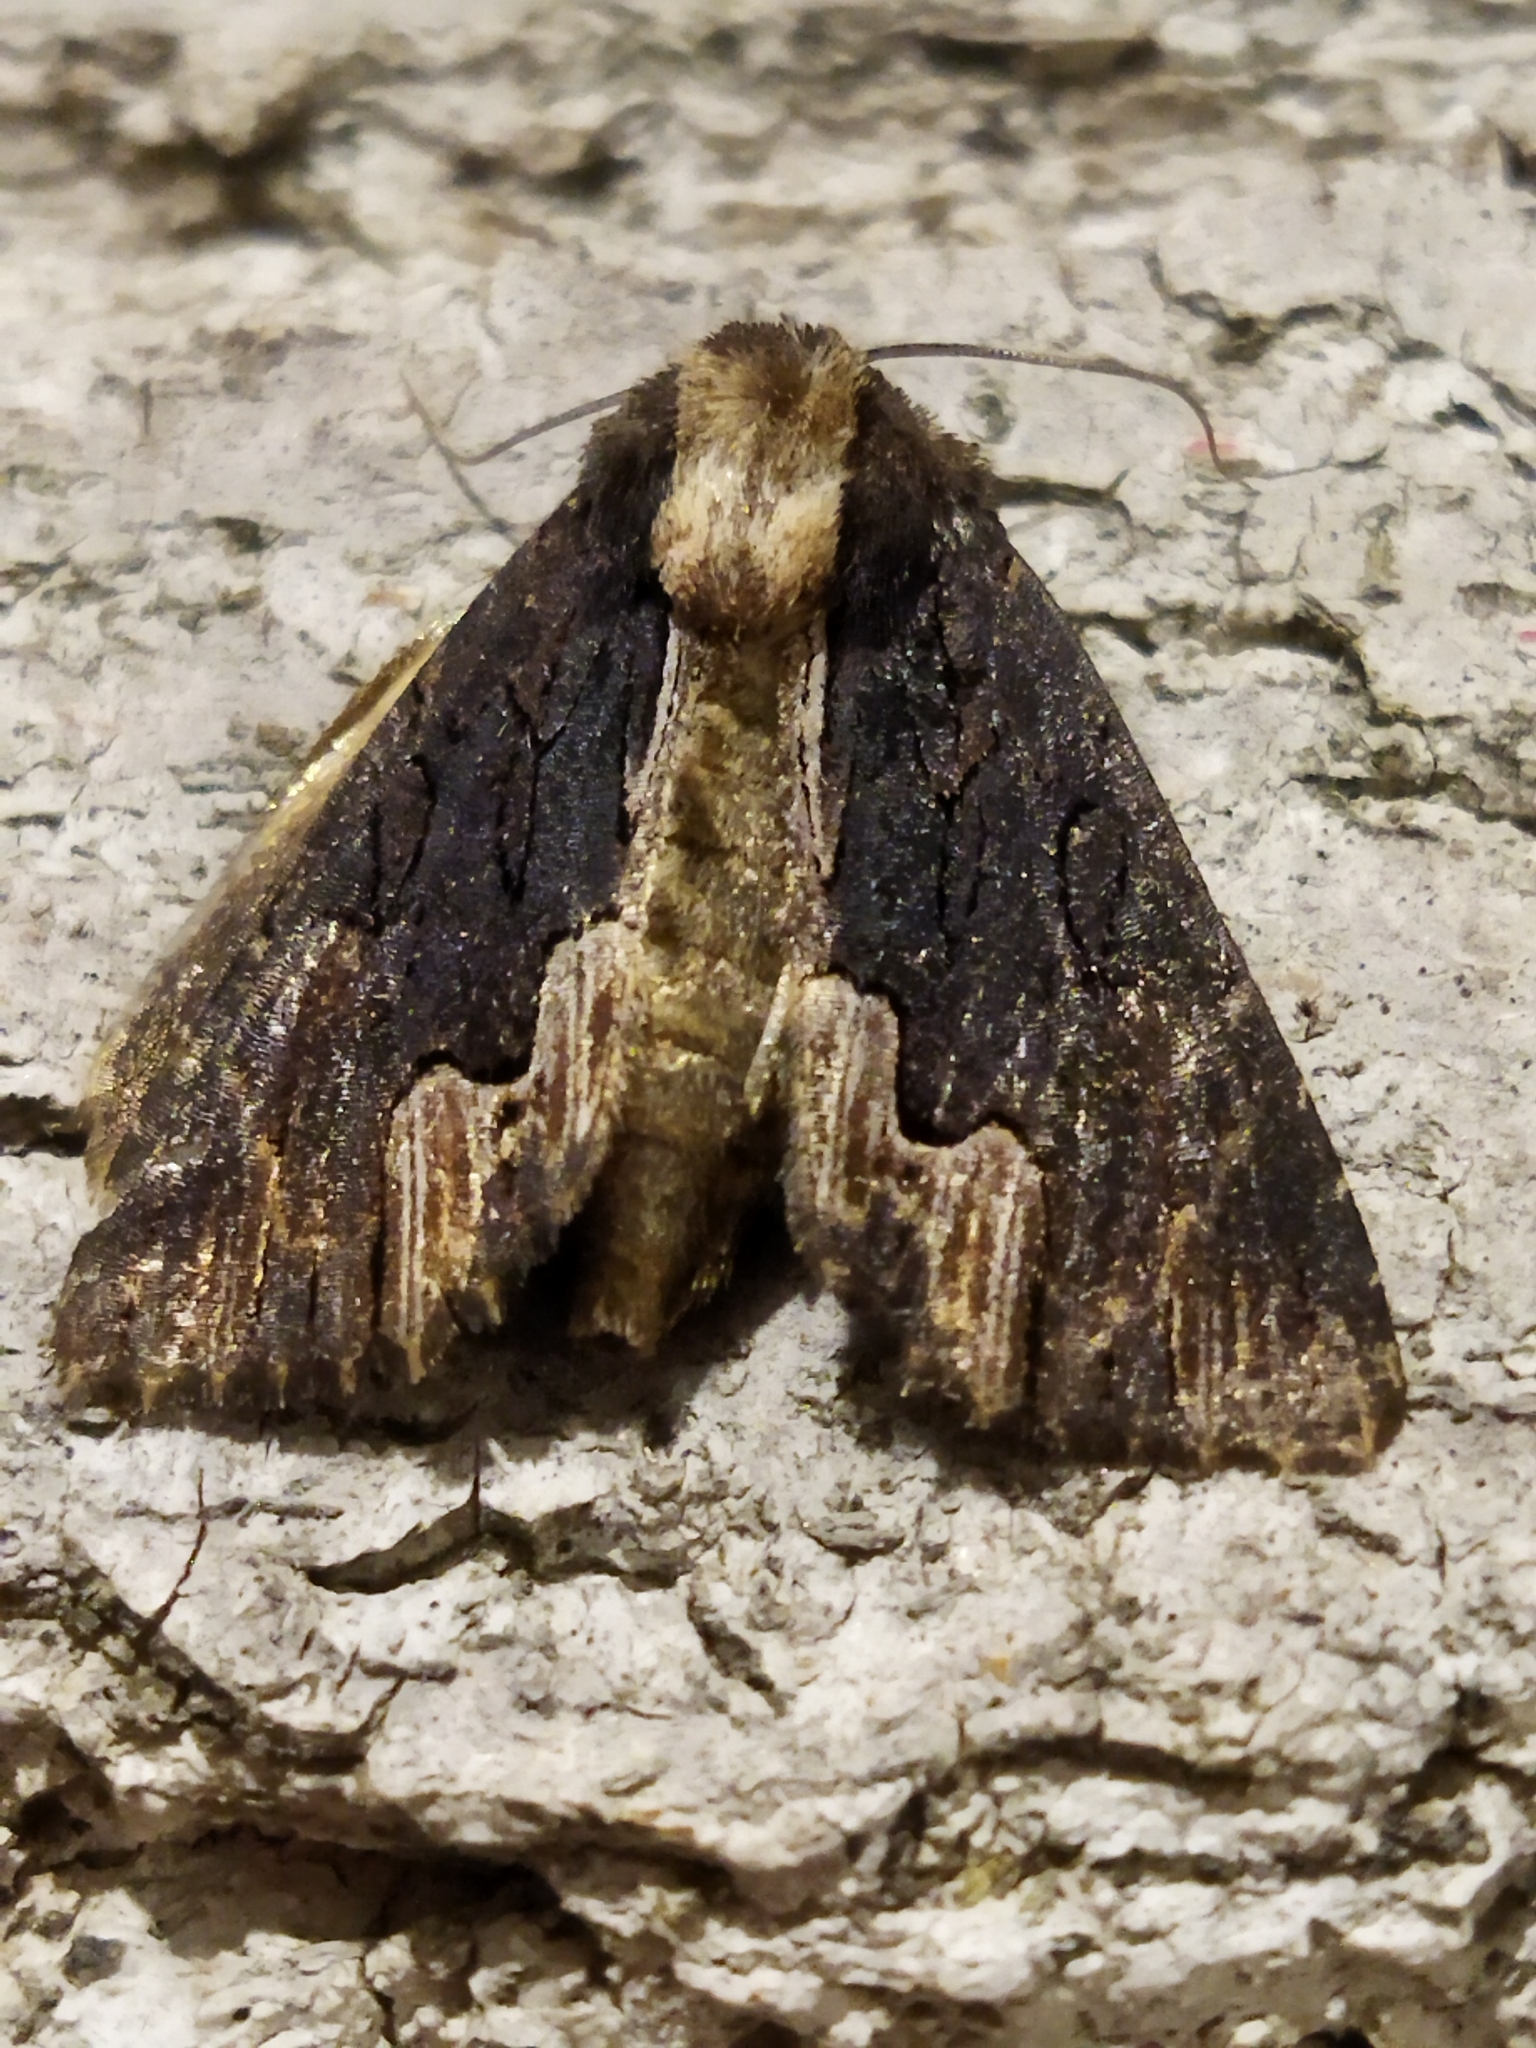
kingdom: Animalia
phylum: Arthropoda
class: Insecta
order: Lepidoptera
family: Noctuidae
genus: Dypterygia
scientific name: Dypterygia scabriuscula
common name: Bird's wing
